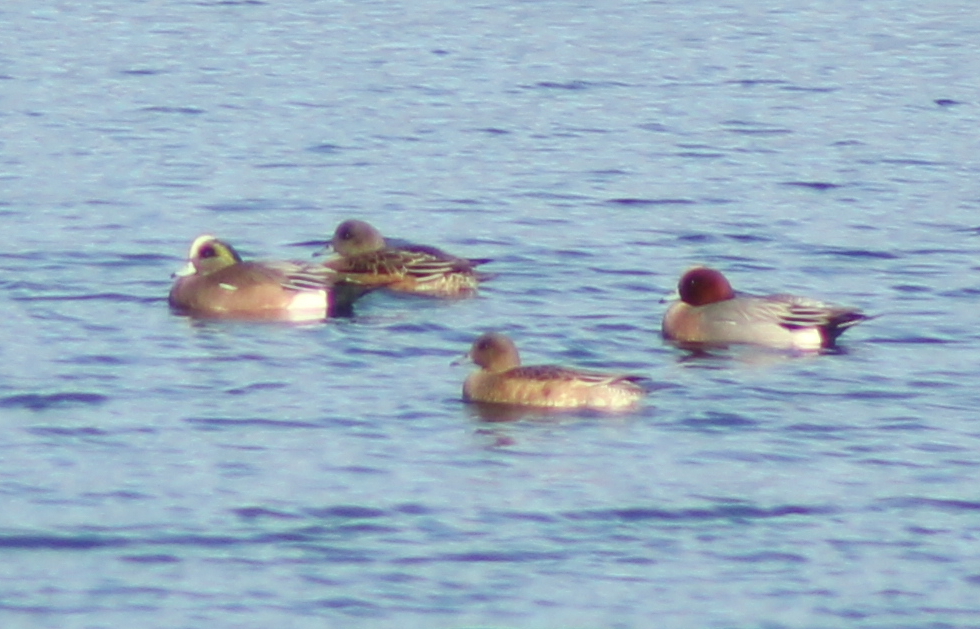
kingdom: Animalia
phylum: Chordata
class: Aves
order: Anseriformes
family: Anatidae
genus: Mareca
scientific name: Mareca penelope
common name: Eurasian wigeon
